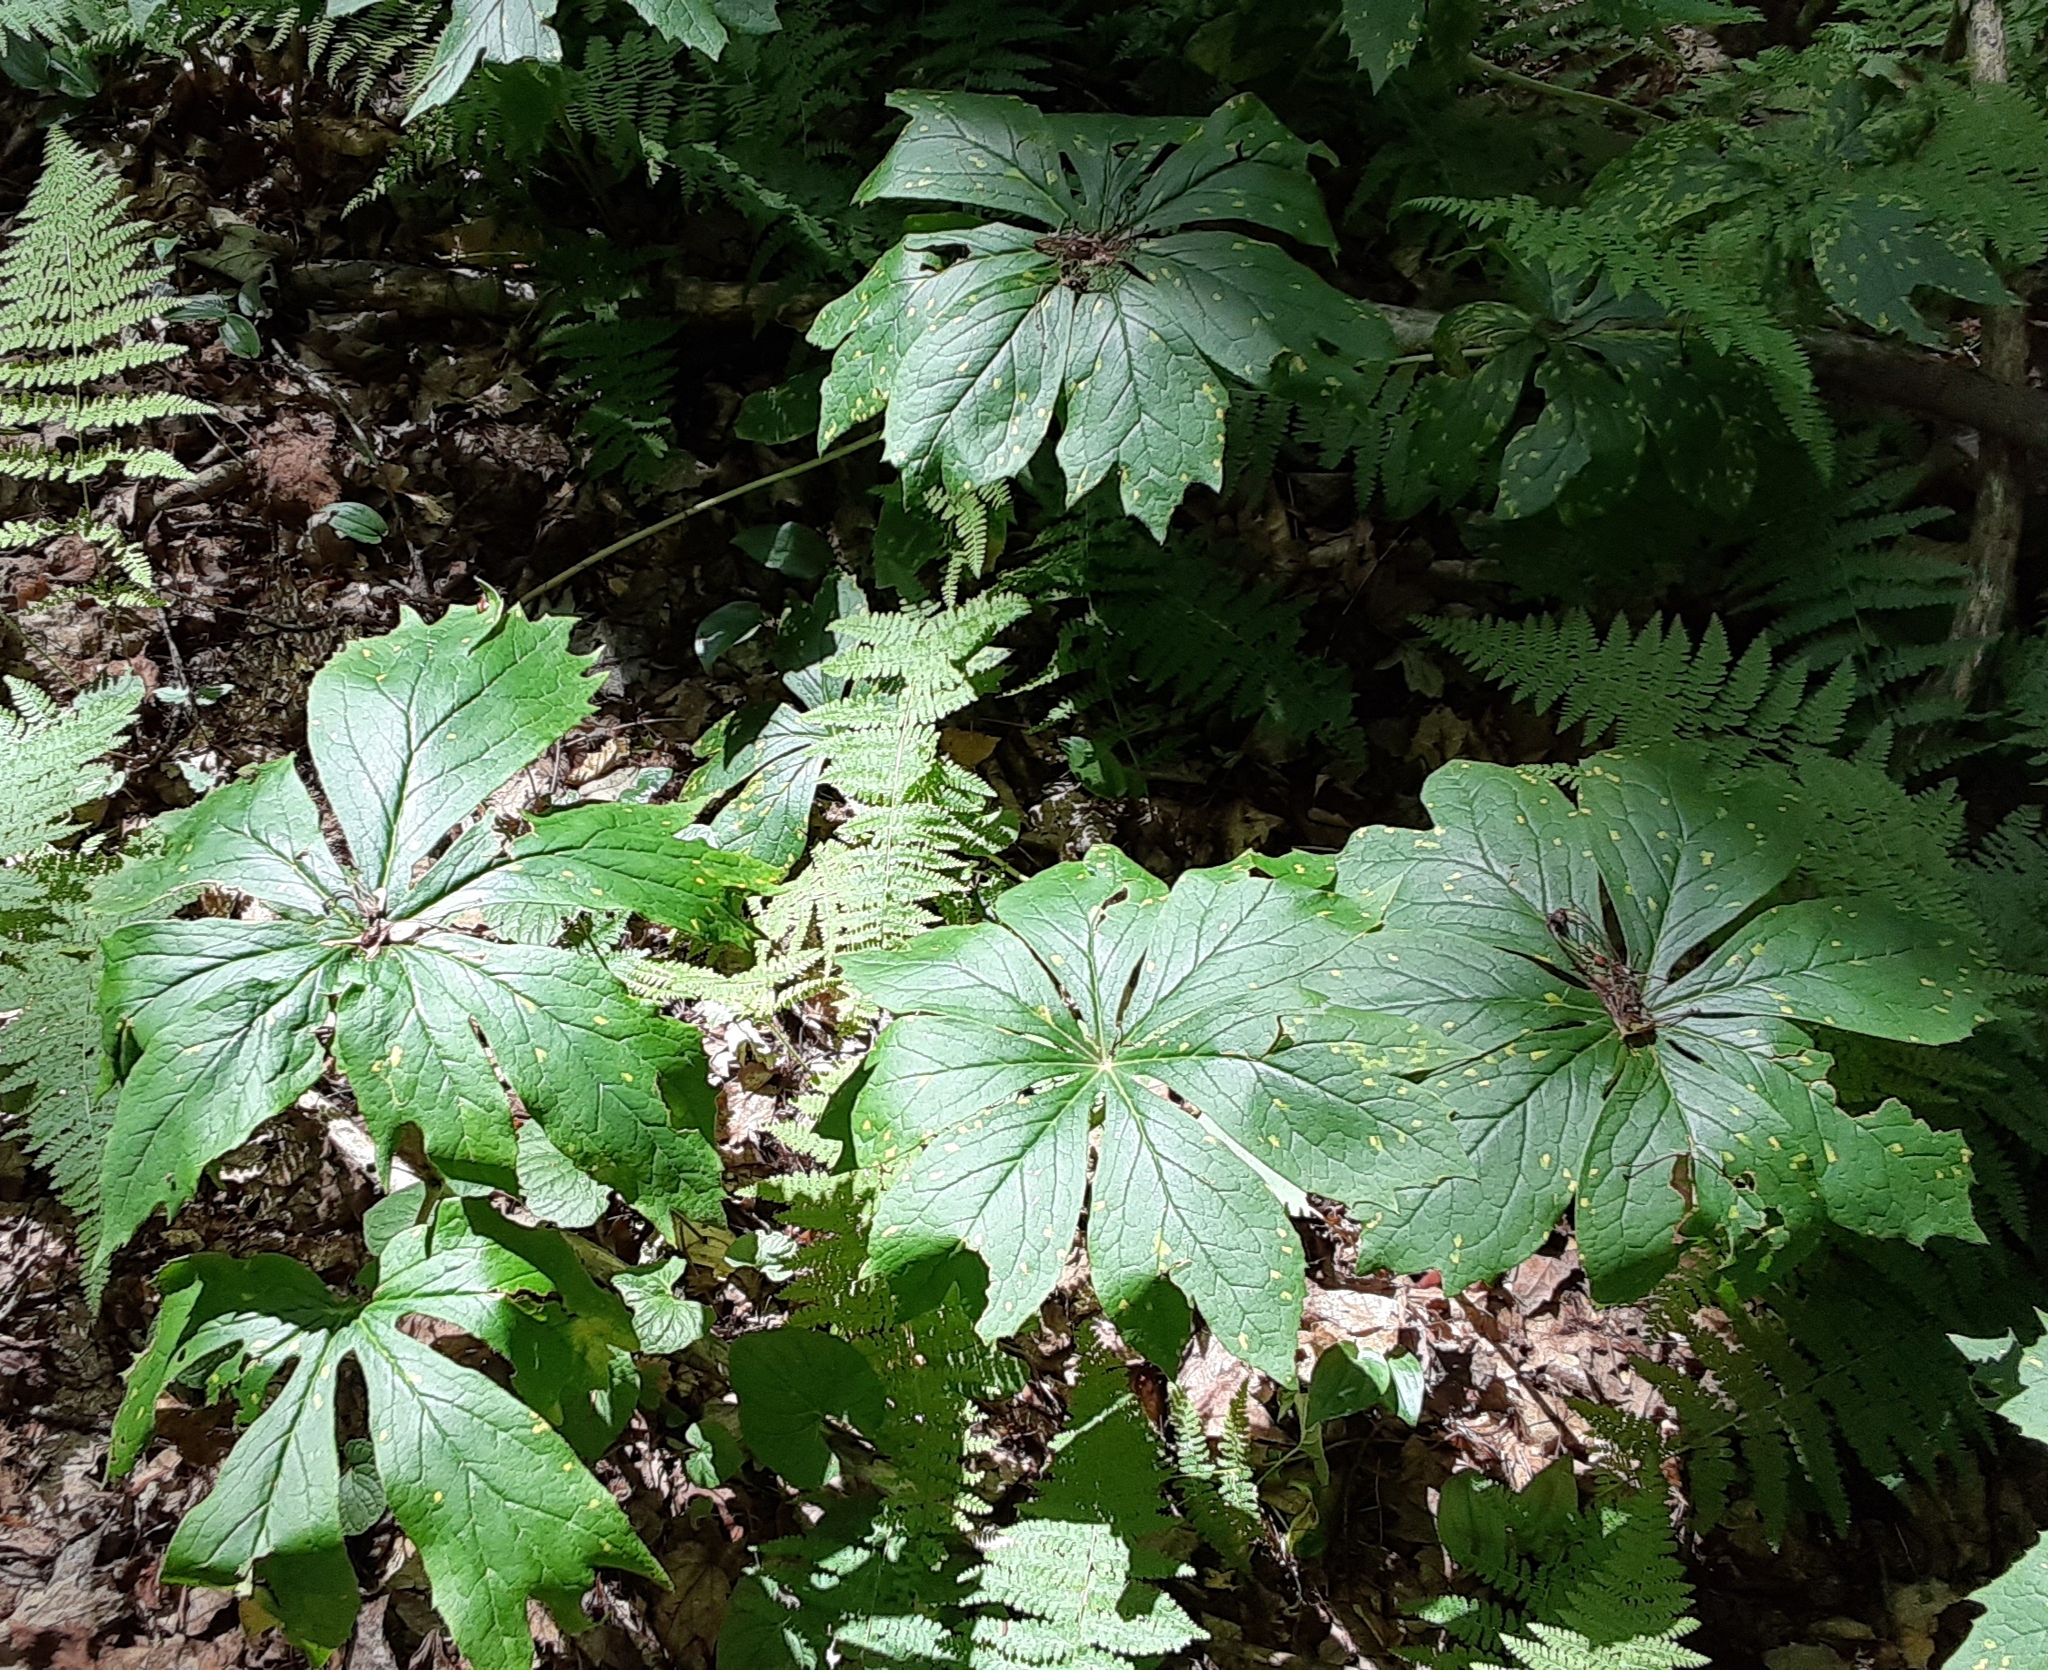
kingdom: Plantae
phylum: Tracheophyta
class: Magnoliopsida
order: Ranunculales
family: Berberidaceae
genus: Podophyllum
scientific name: Podophyllum peltatum
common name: Wild mandrake
